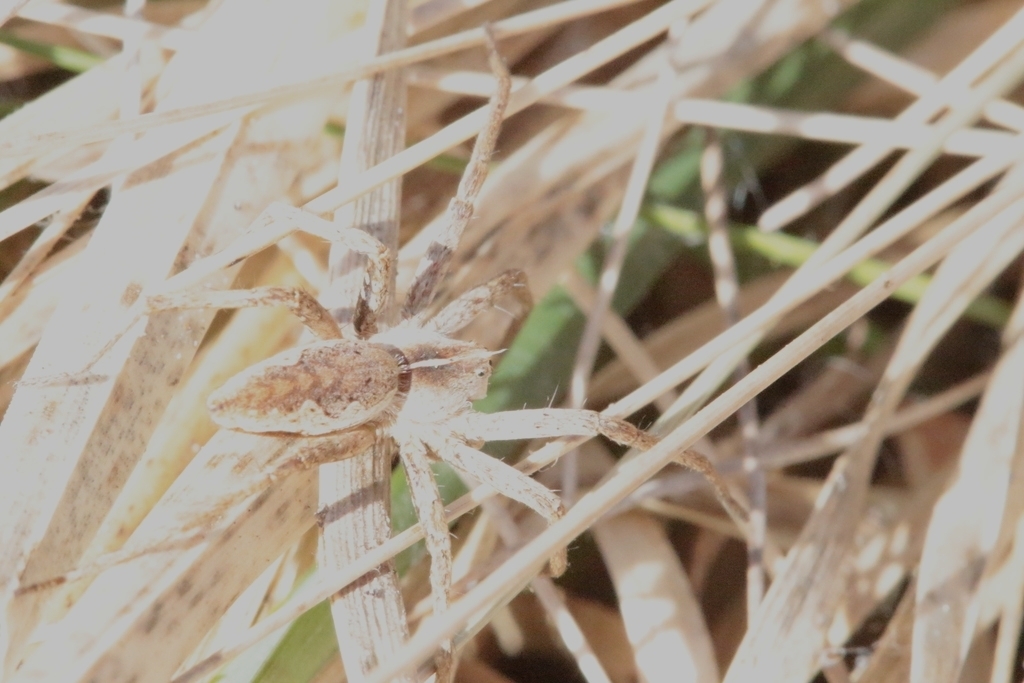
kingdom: Animalia
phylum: Arthropoda
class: Arachnida
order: Araneae
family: Pisauridae
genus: Pisaura
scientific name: Pisaura mirabilis
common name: Tent spider
